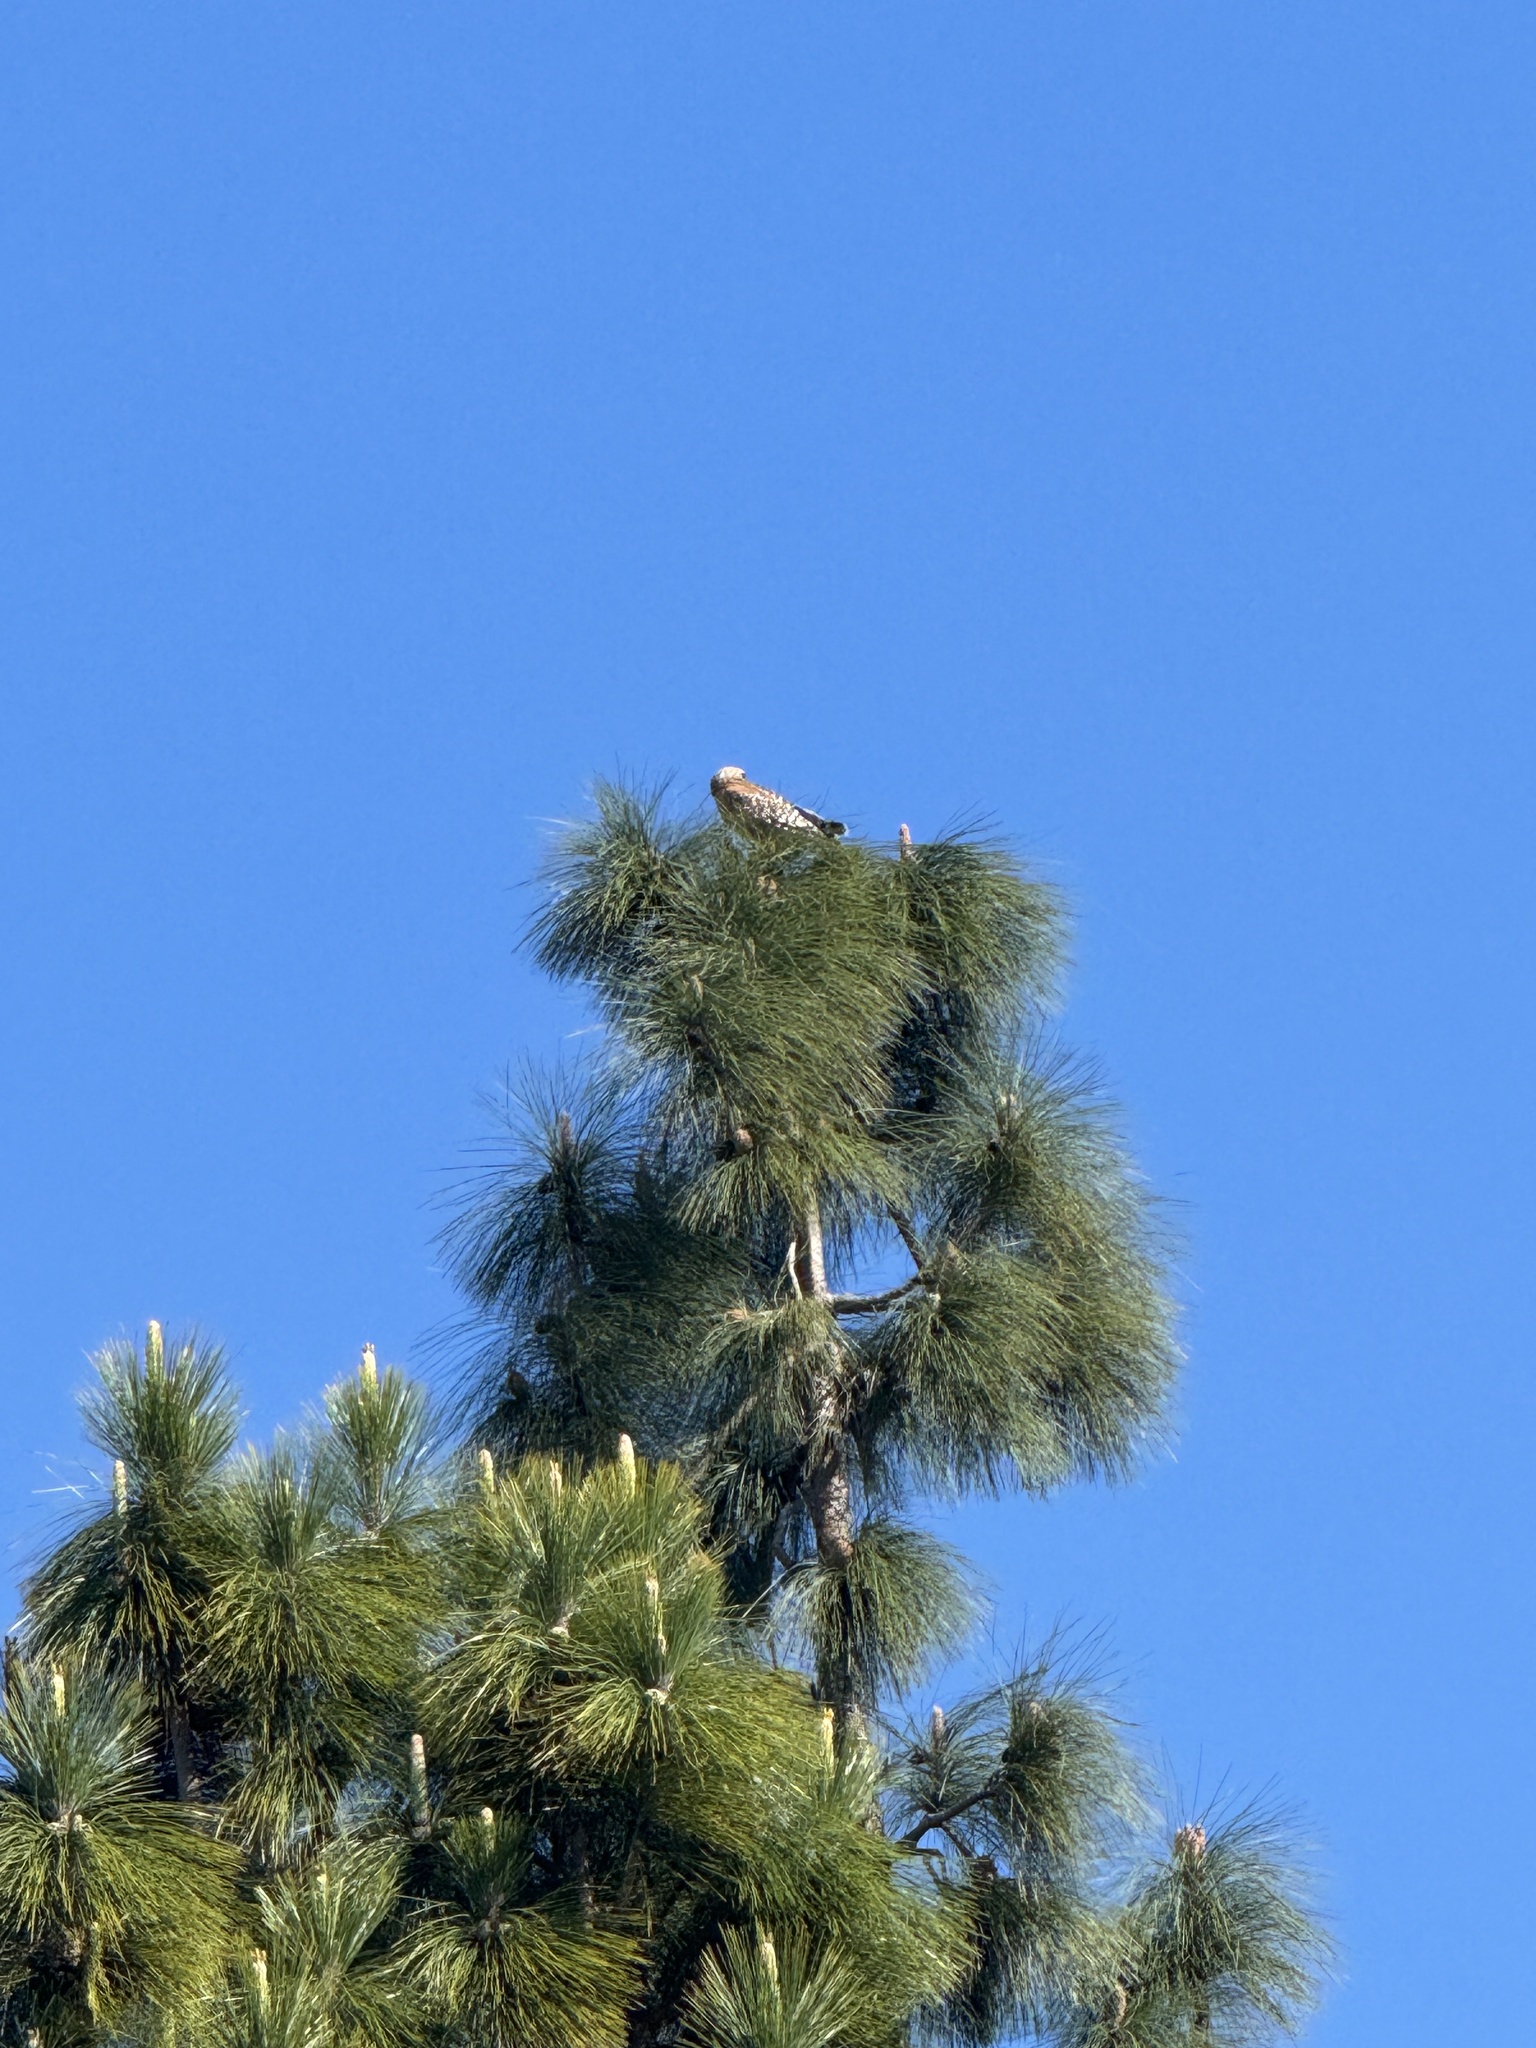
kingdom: Animalia
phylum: Chordata
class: Aves
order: Accipitriformes
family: Accipitridae
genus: Buteo
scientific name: Buteo lineatus
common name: Red-shouldered hawk
